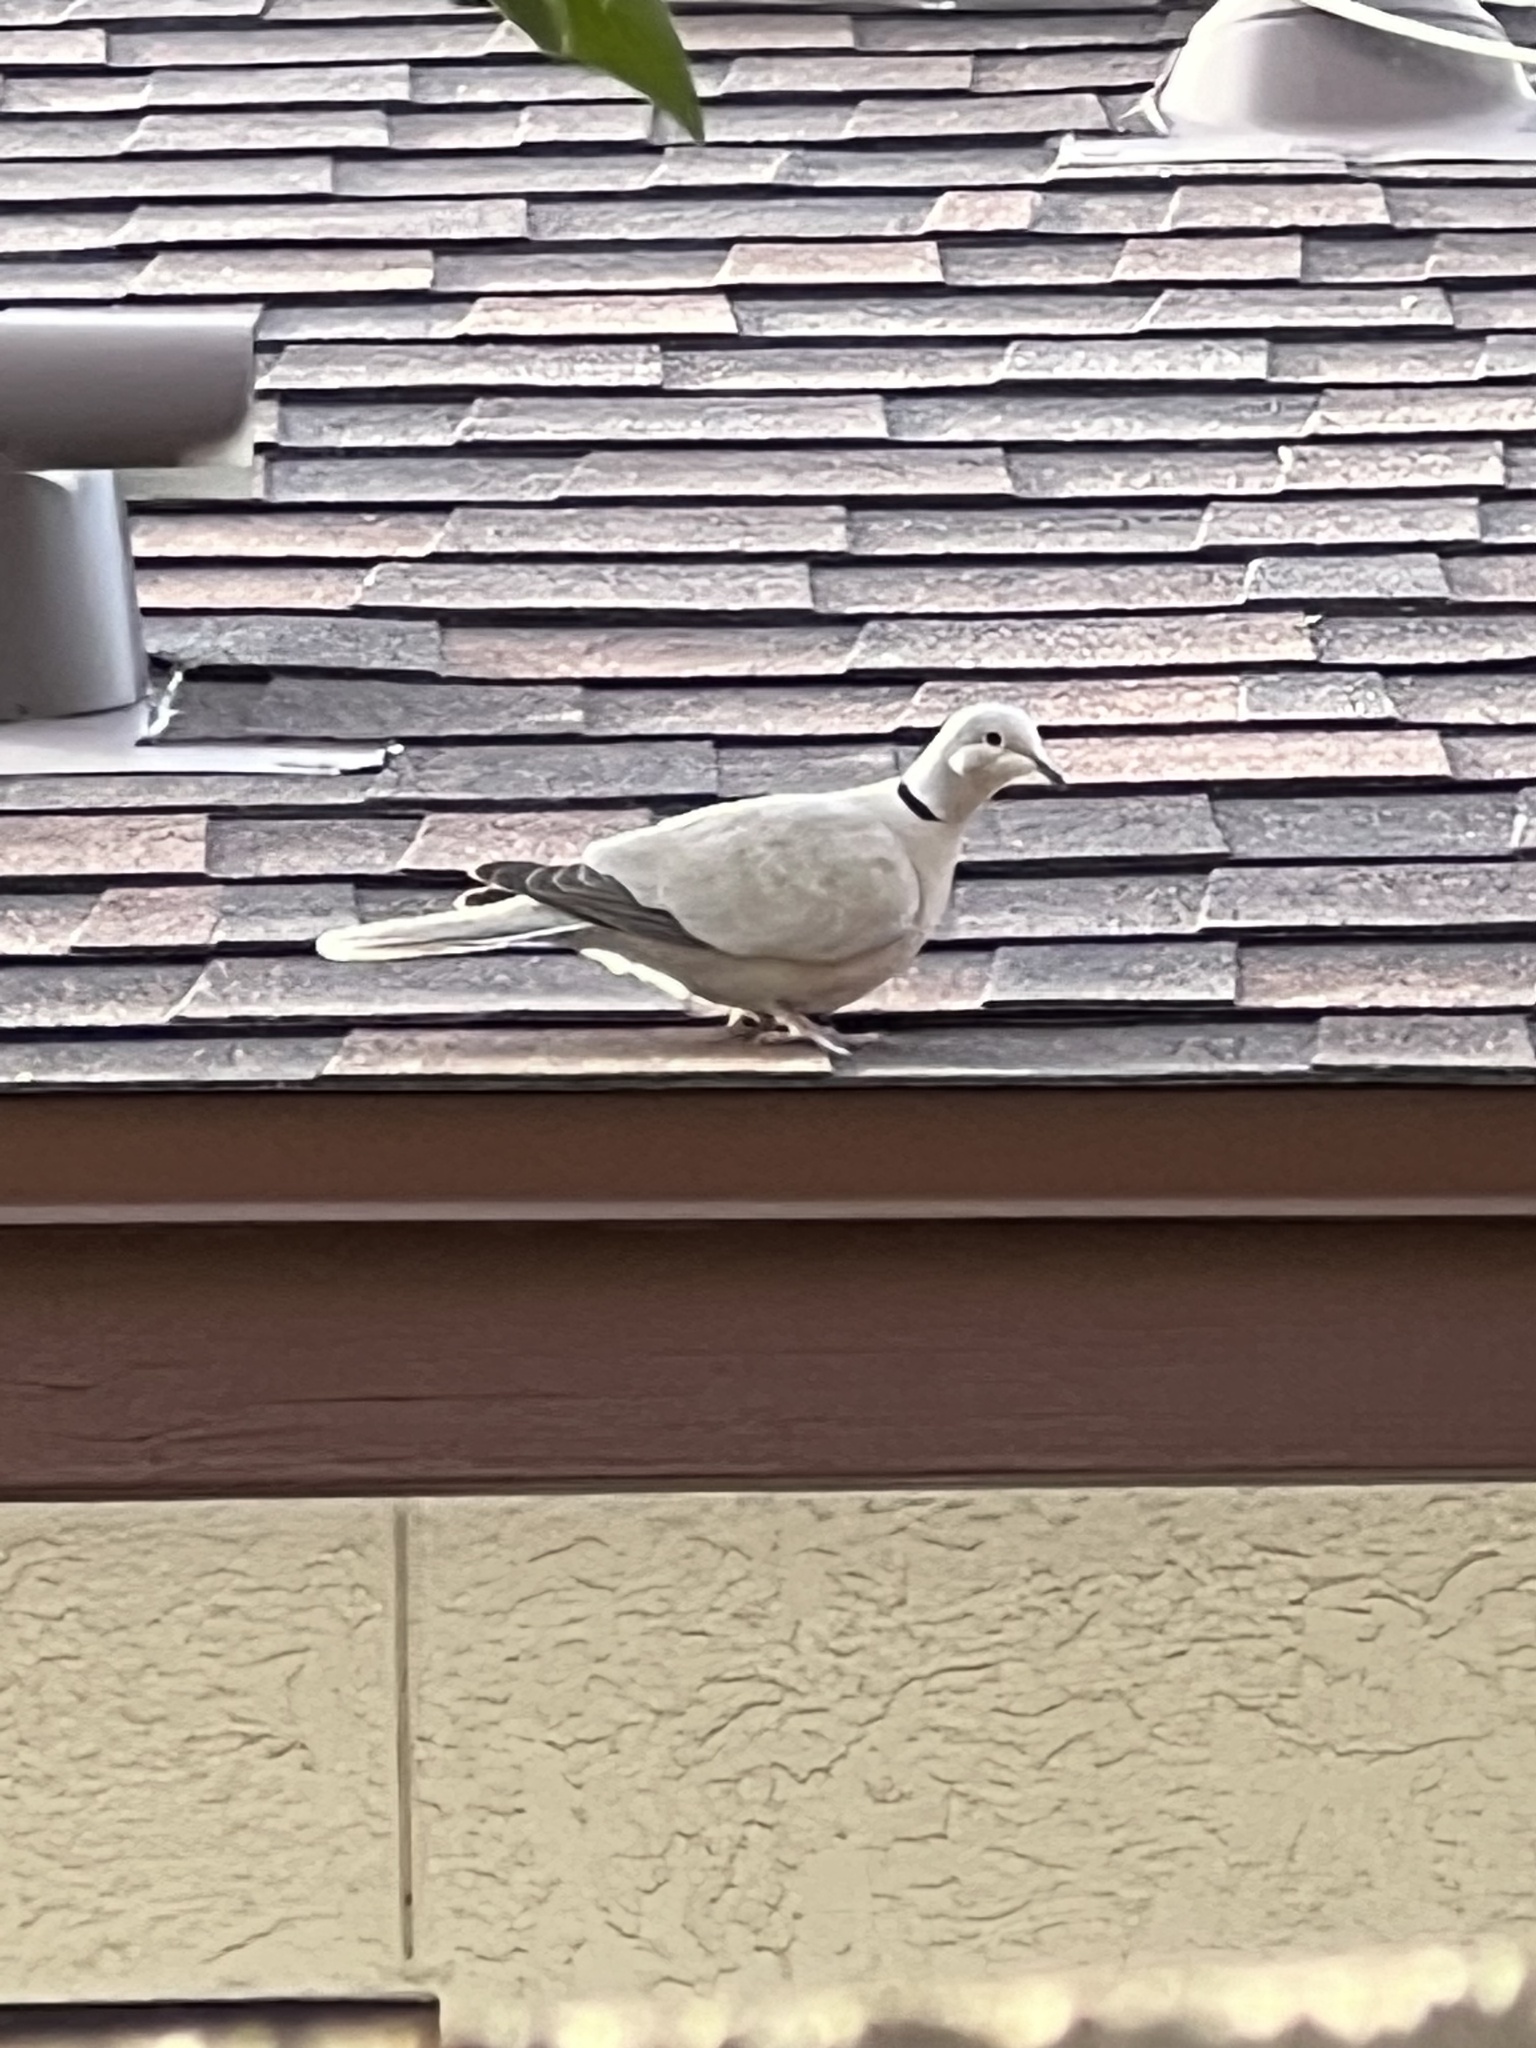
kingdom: Animalia
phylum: Chordata
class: Aves
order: Columbiformes
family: Columbidae
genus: Streptopelia
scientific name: Streptopelia decaocto
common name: Eurasian collared dove
